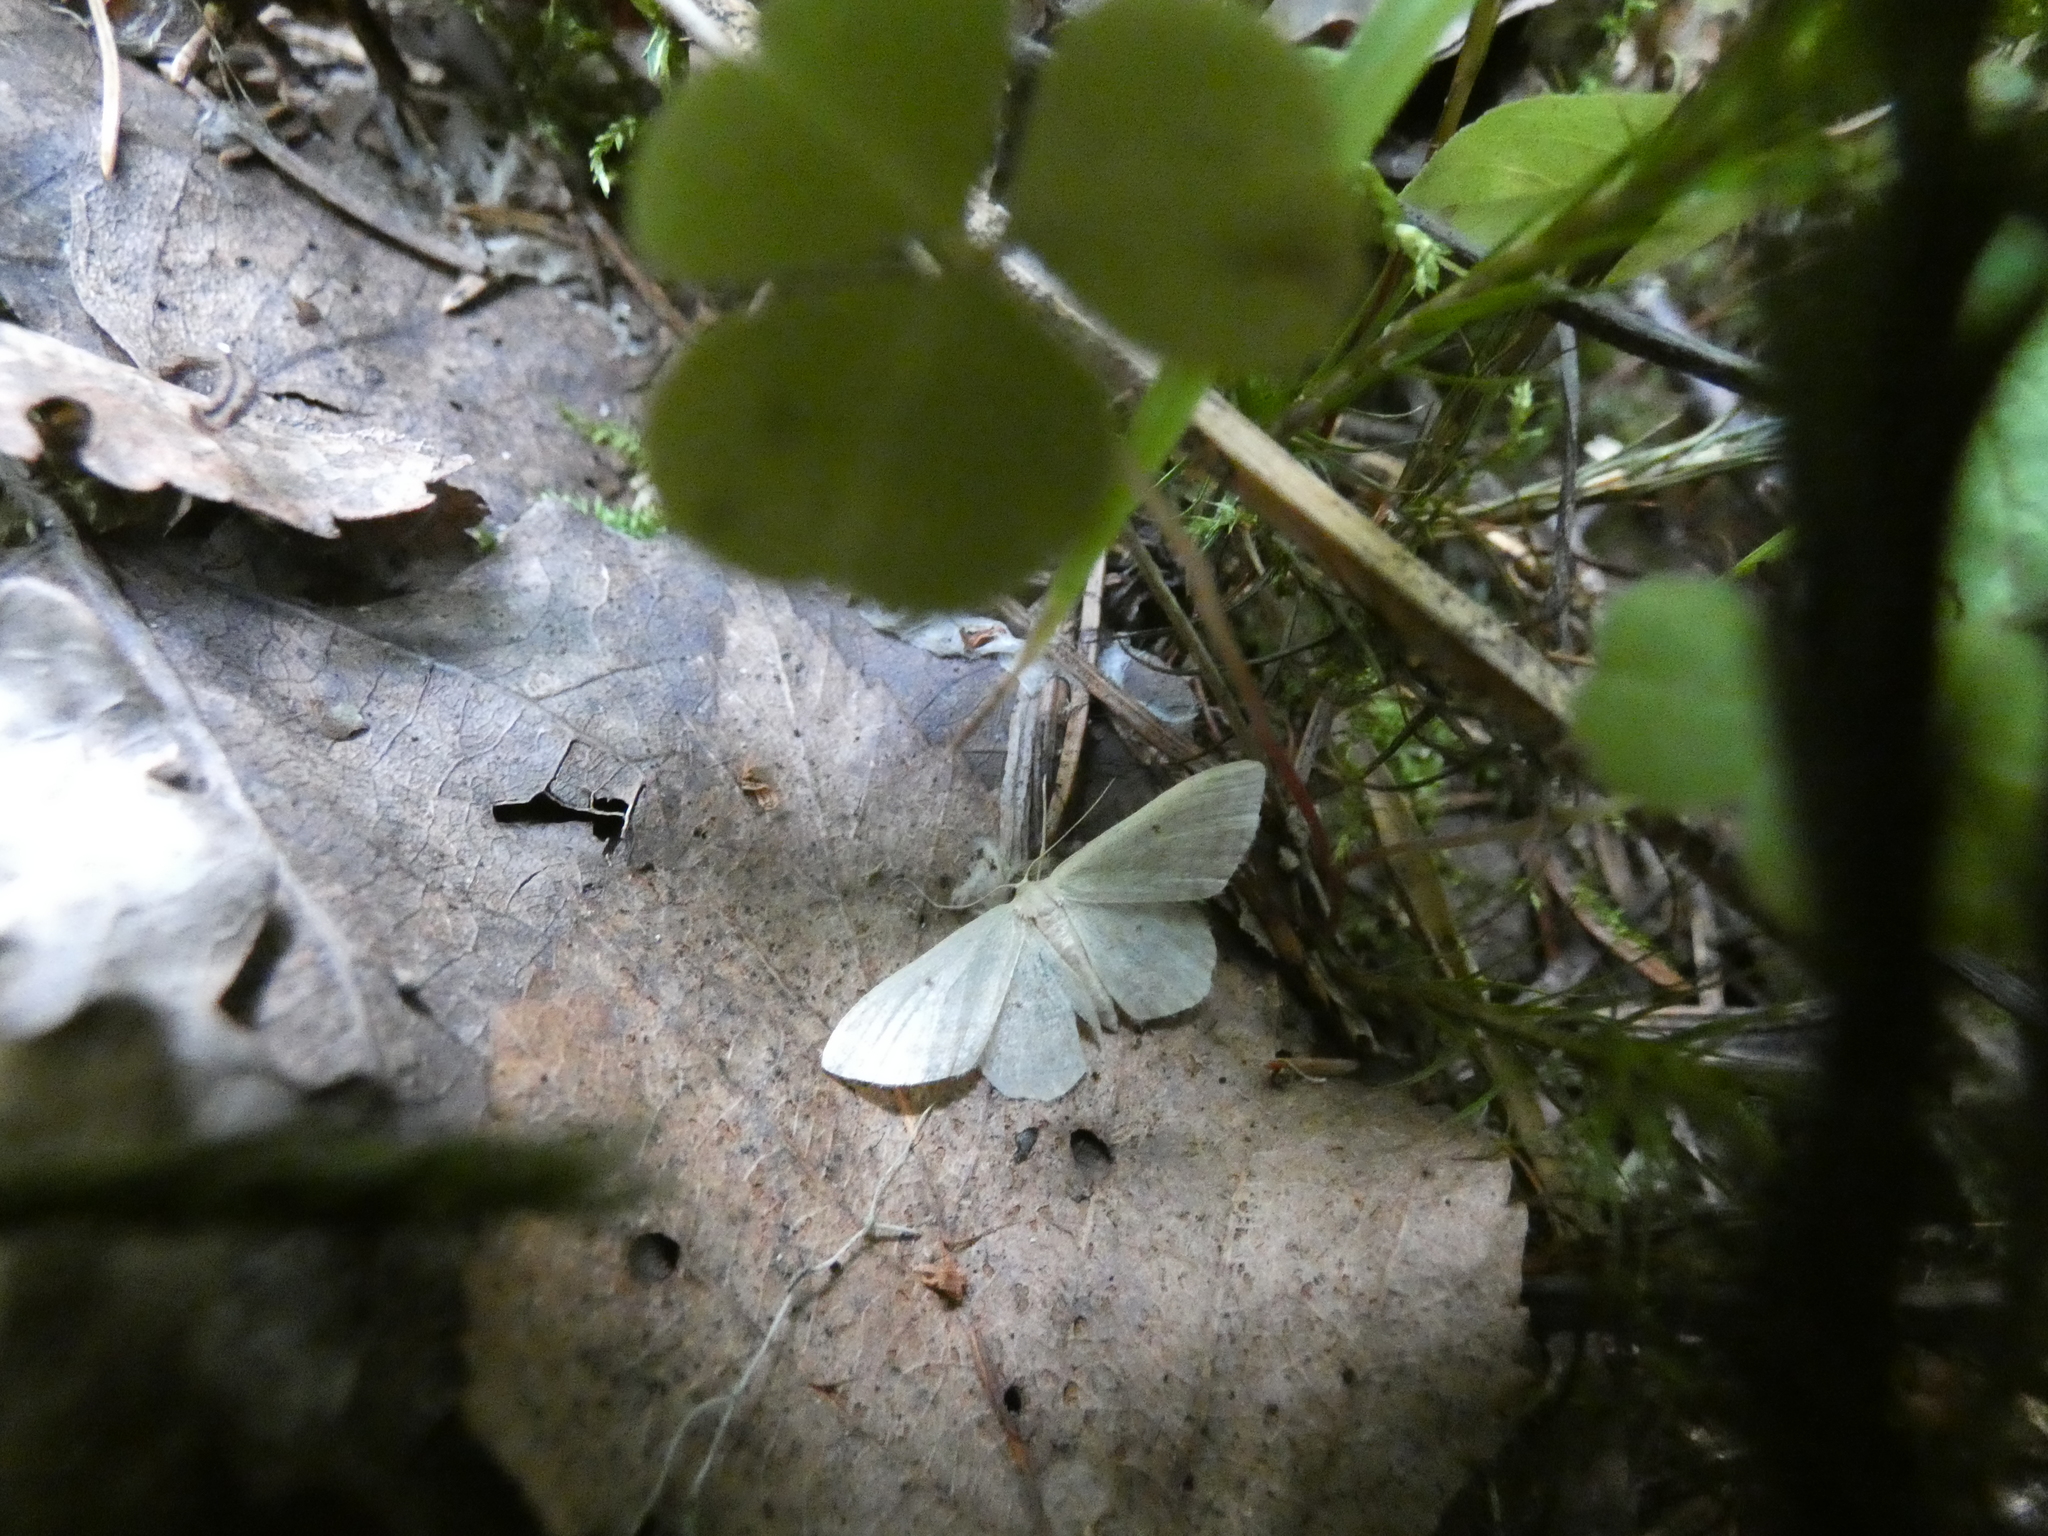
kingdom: Animalia
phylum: Arthropoda
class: Insecta
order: Lepidoptera
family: Geometridae
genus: Idaea
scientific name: Idaea biselata
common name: Small fan-footed wave
